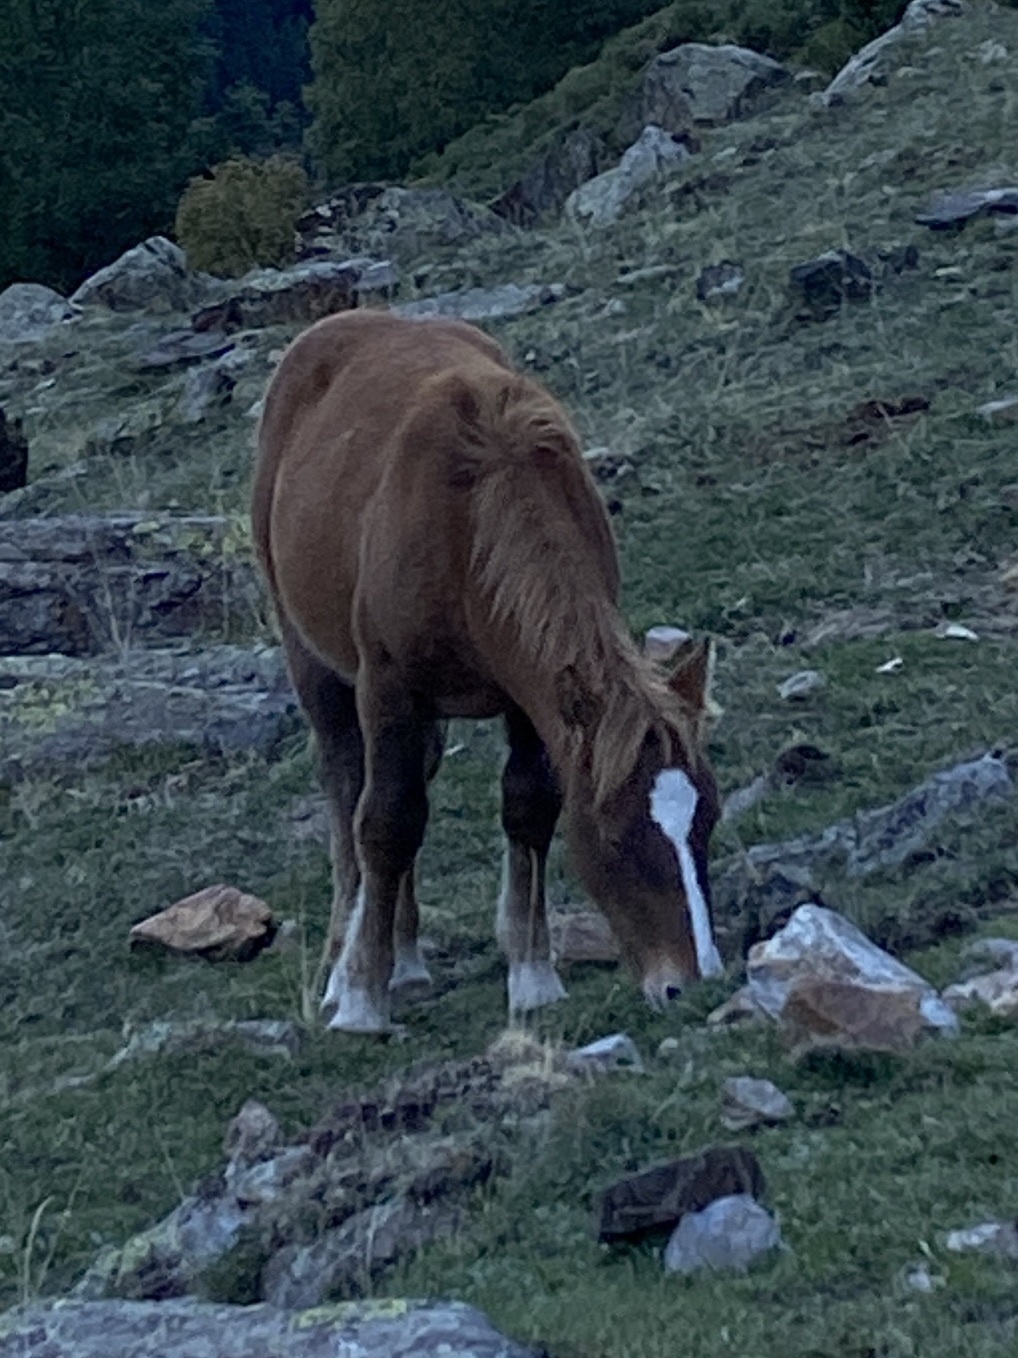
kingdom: Animalia
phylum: Chordata
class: Mammalia
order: Perissodactyla
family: Equidae
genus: Equus
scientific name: Equus caballus
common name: Horse
